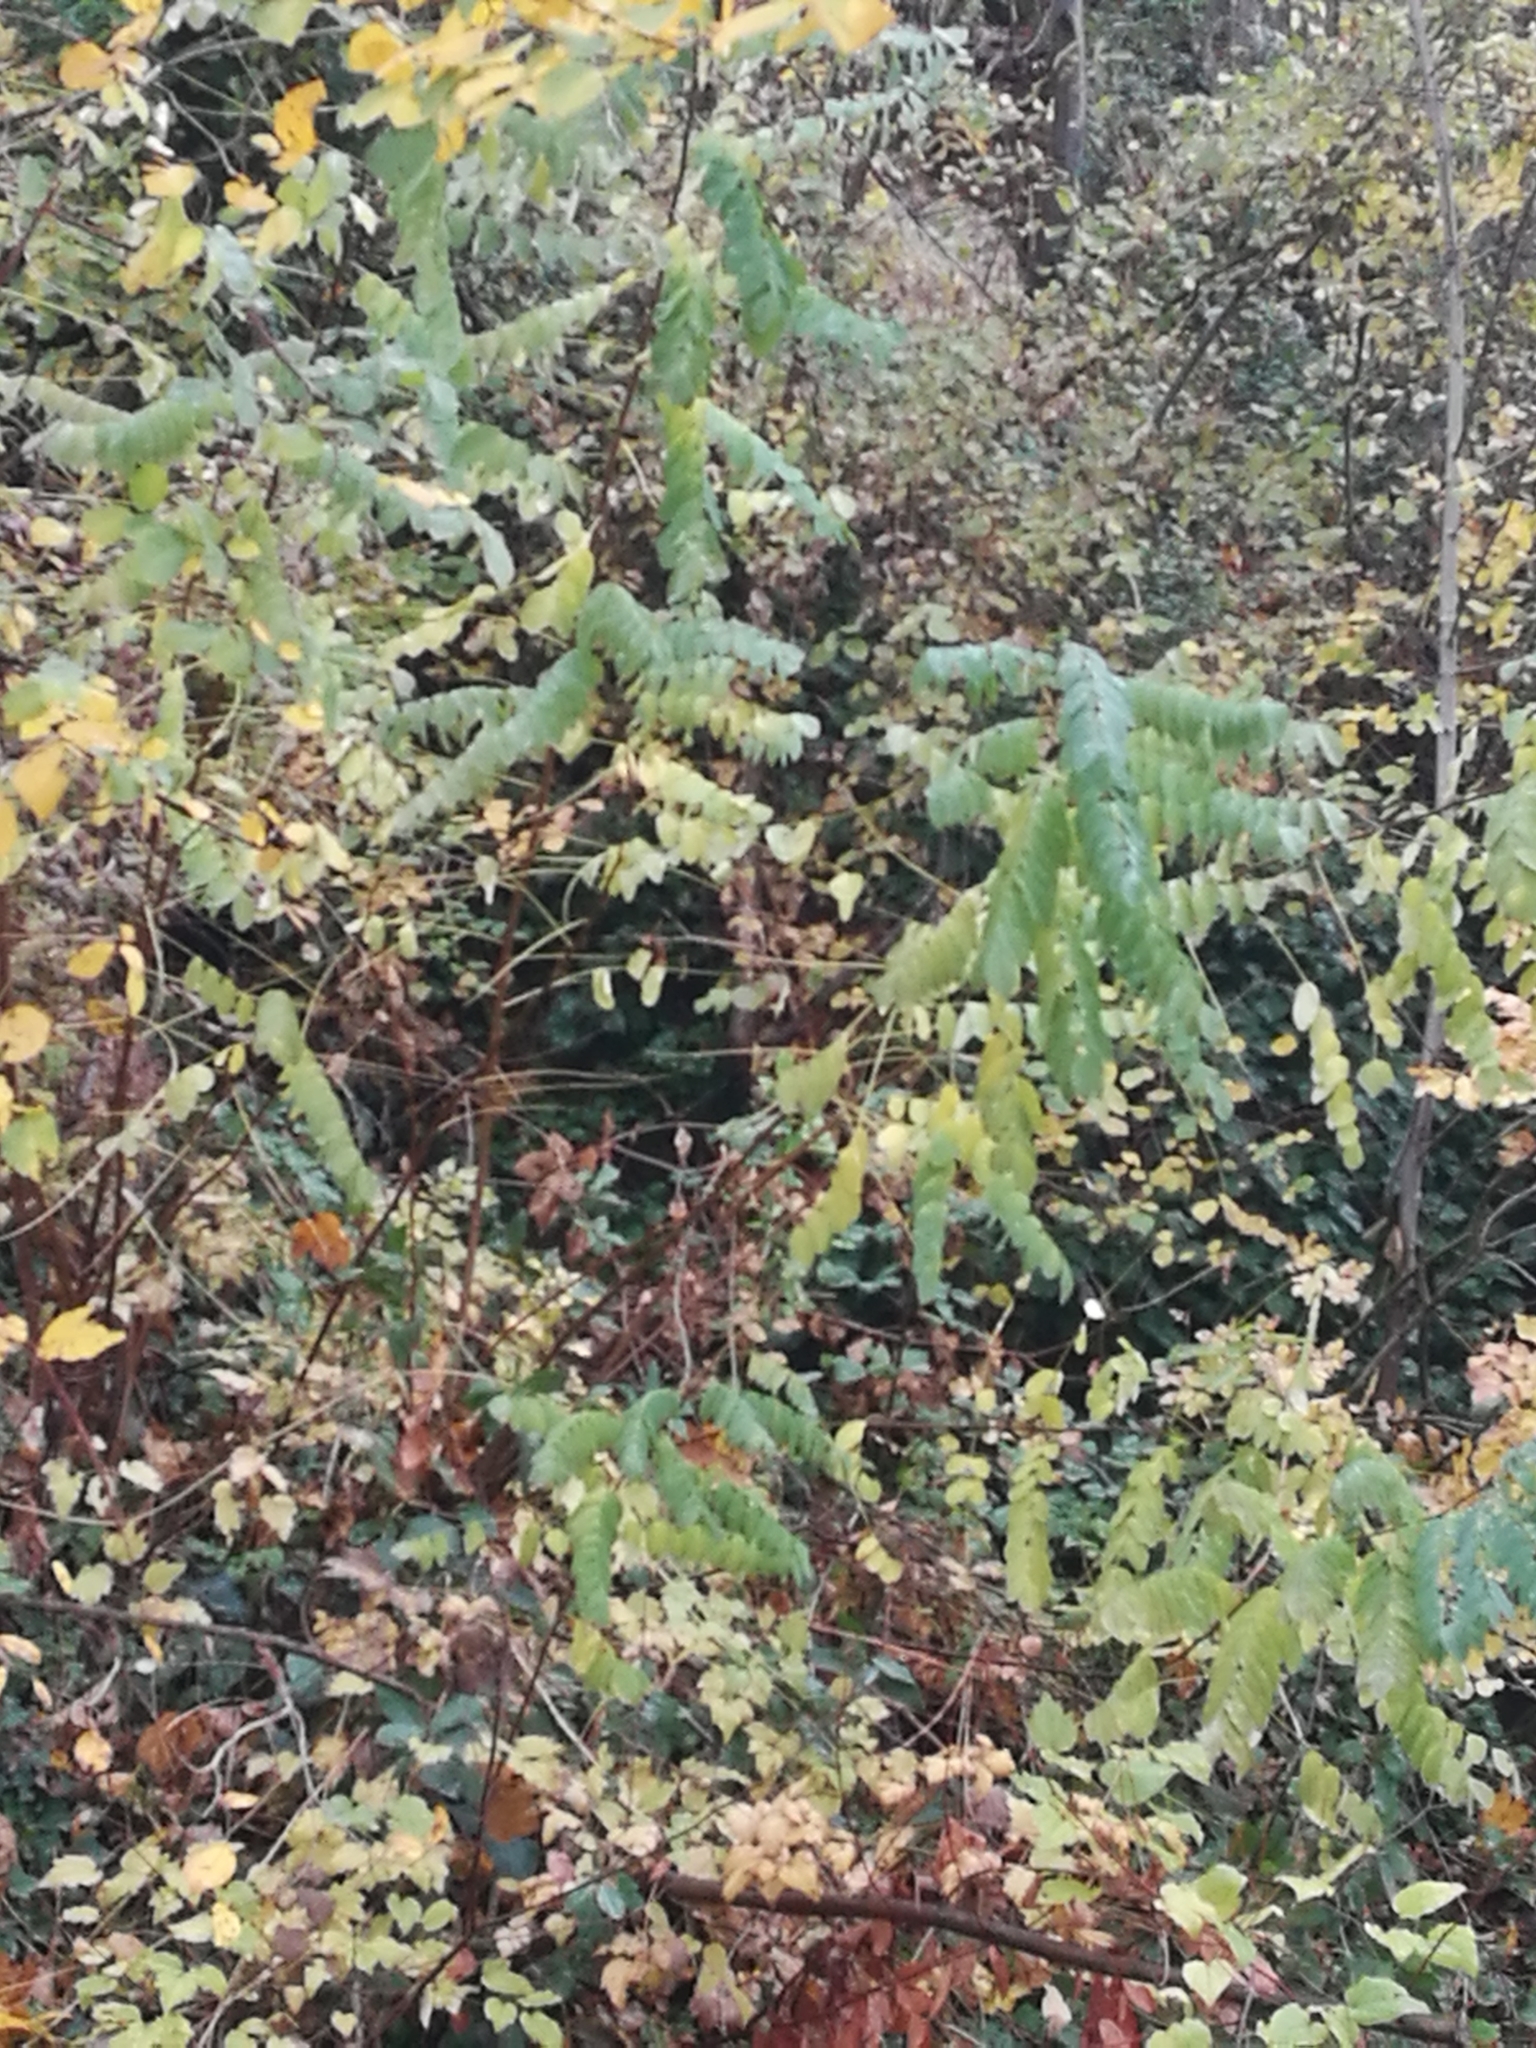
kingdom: Plantae
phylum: Tracheophyta
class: Magnoliopsida
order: Fabales
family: Fabaceae
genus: Robinia
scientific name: Robinia pseudoacacia
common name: Black locust
